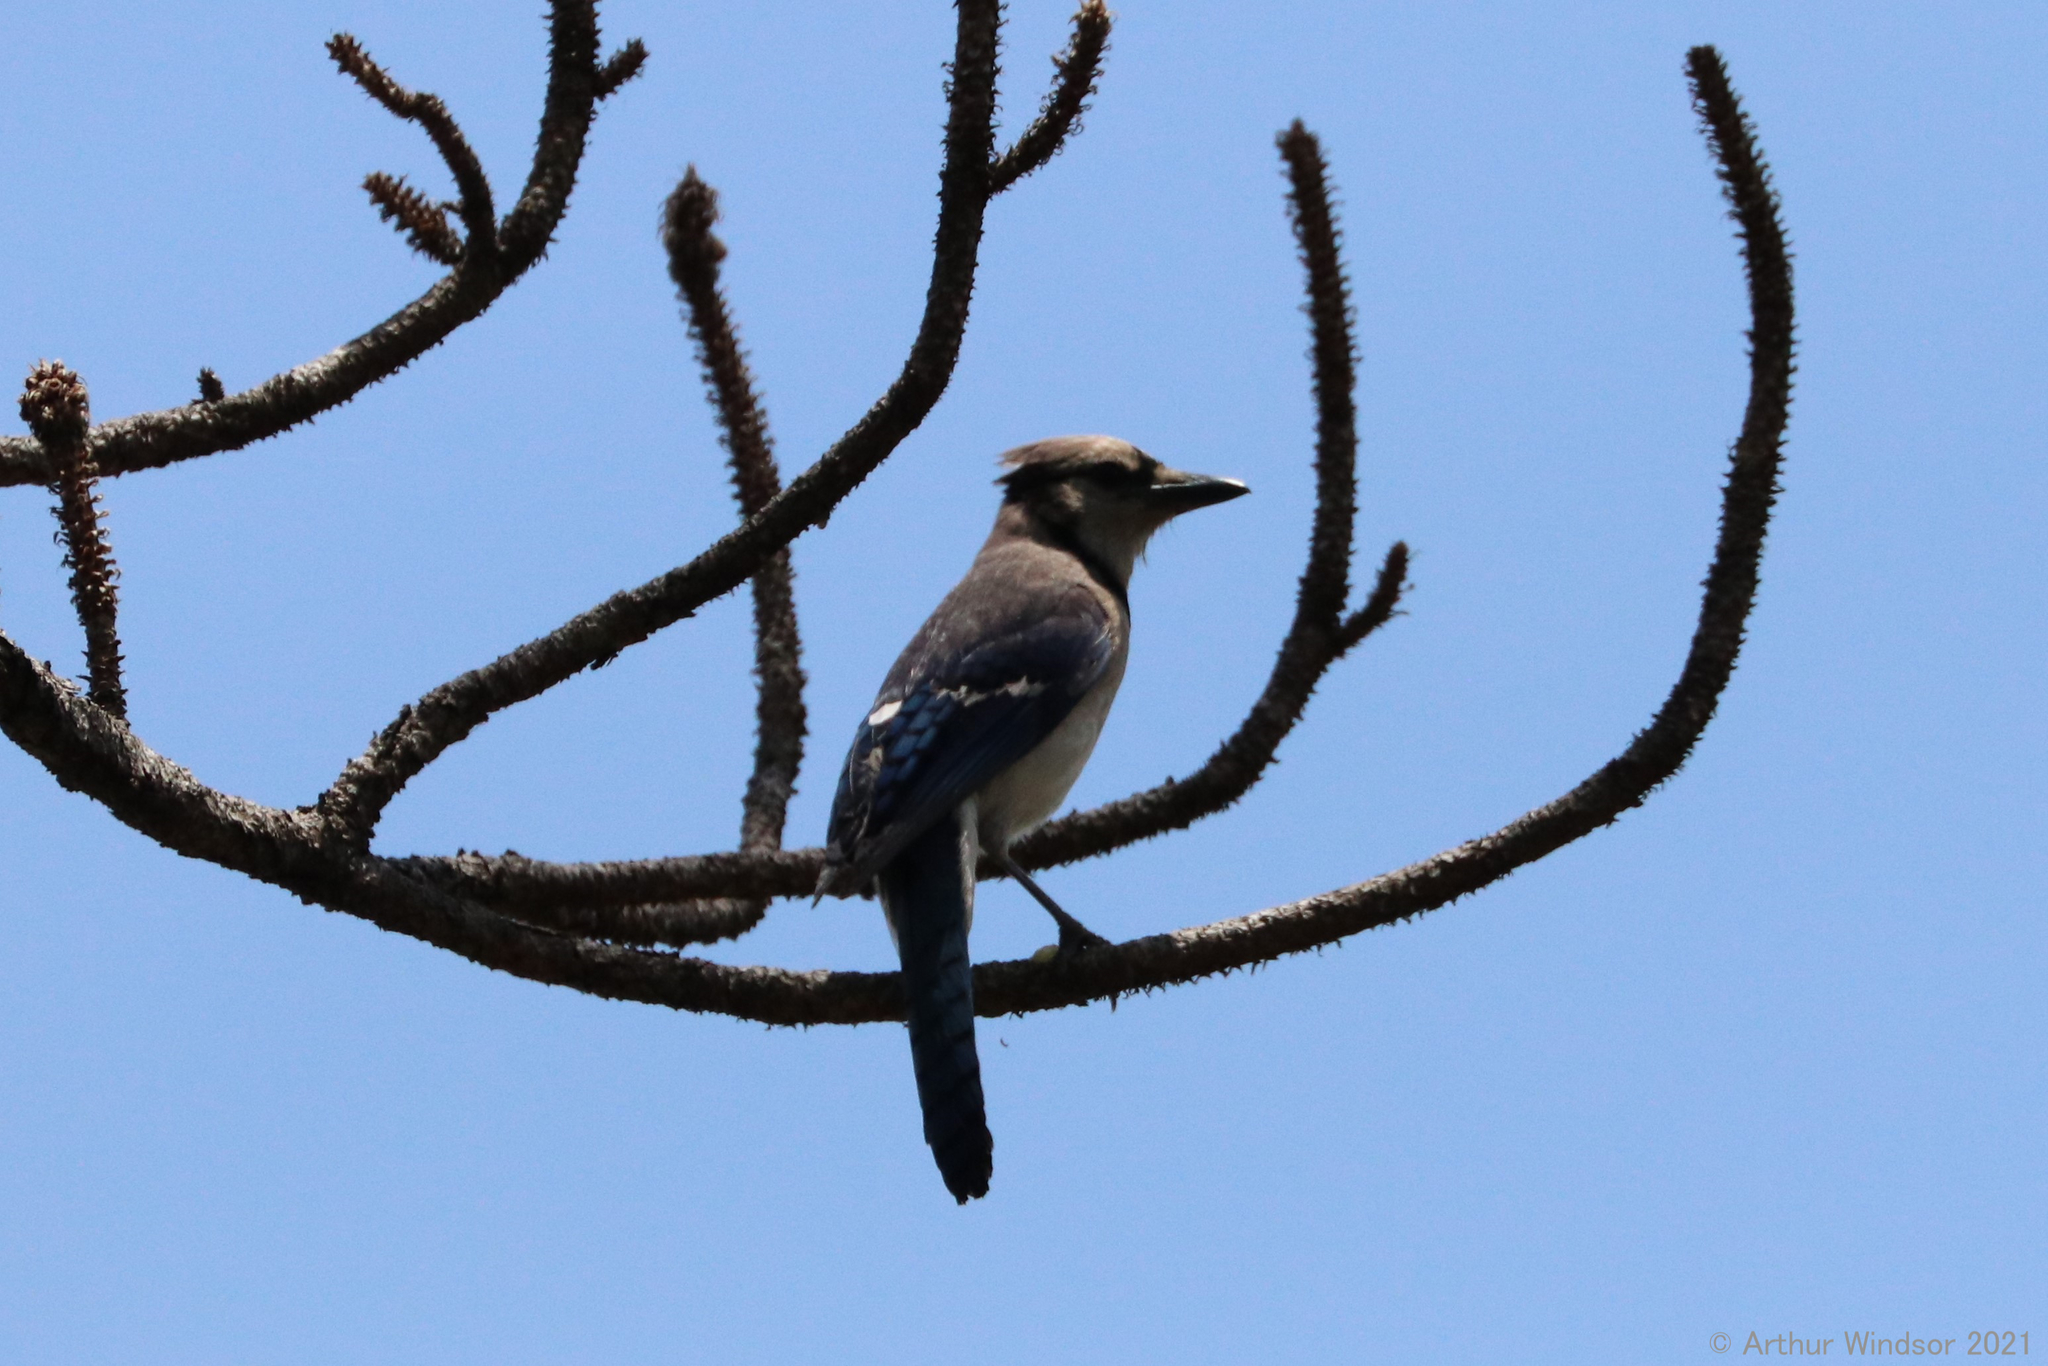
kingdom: Animalia
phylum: Chordata
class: Aves
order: Passeriformes
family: Corvidae
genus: Cyanocitta
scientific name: Cyanocitta cristata
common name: Blue jay
